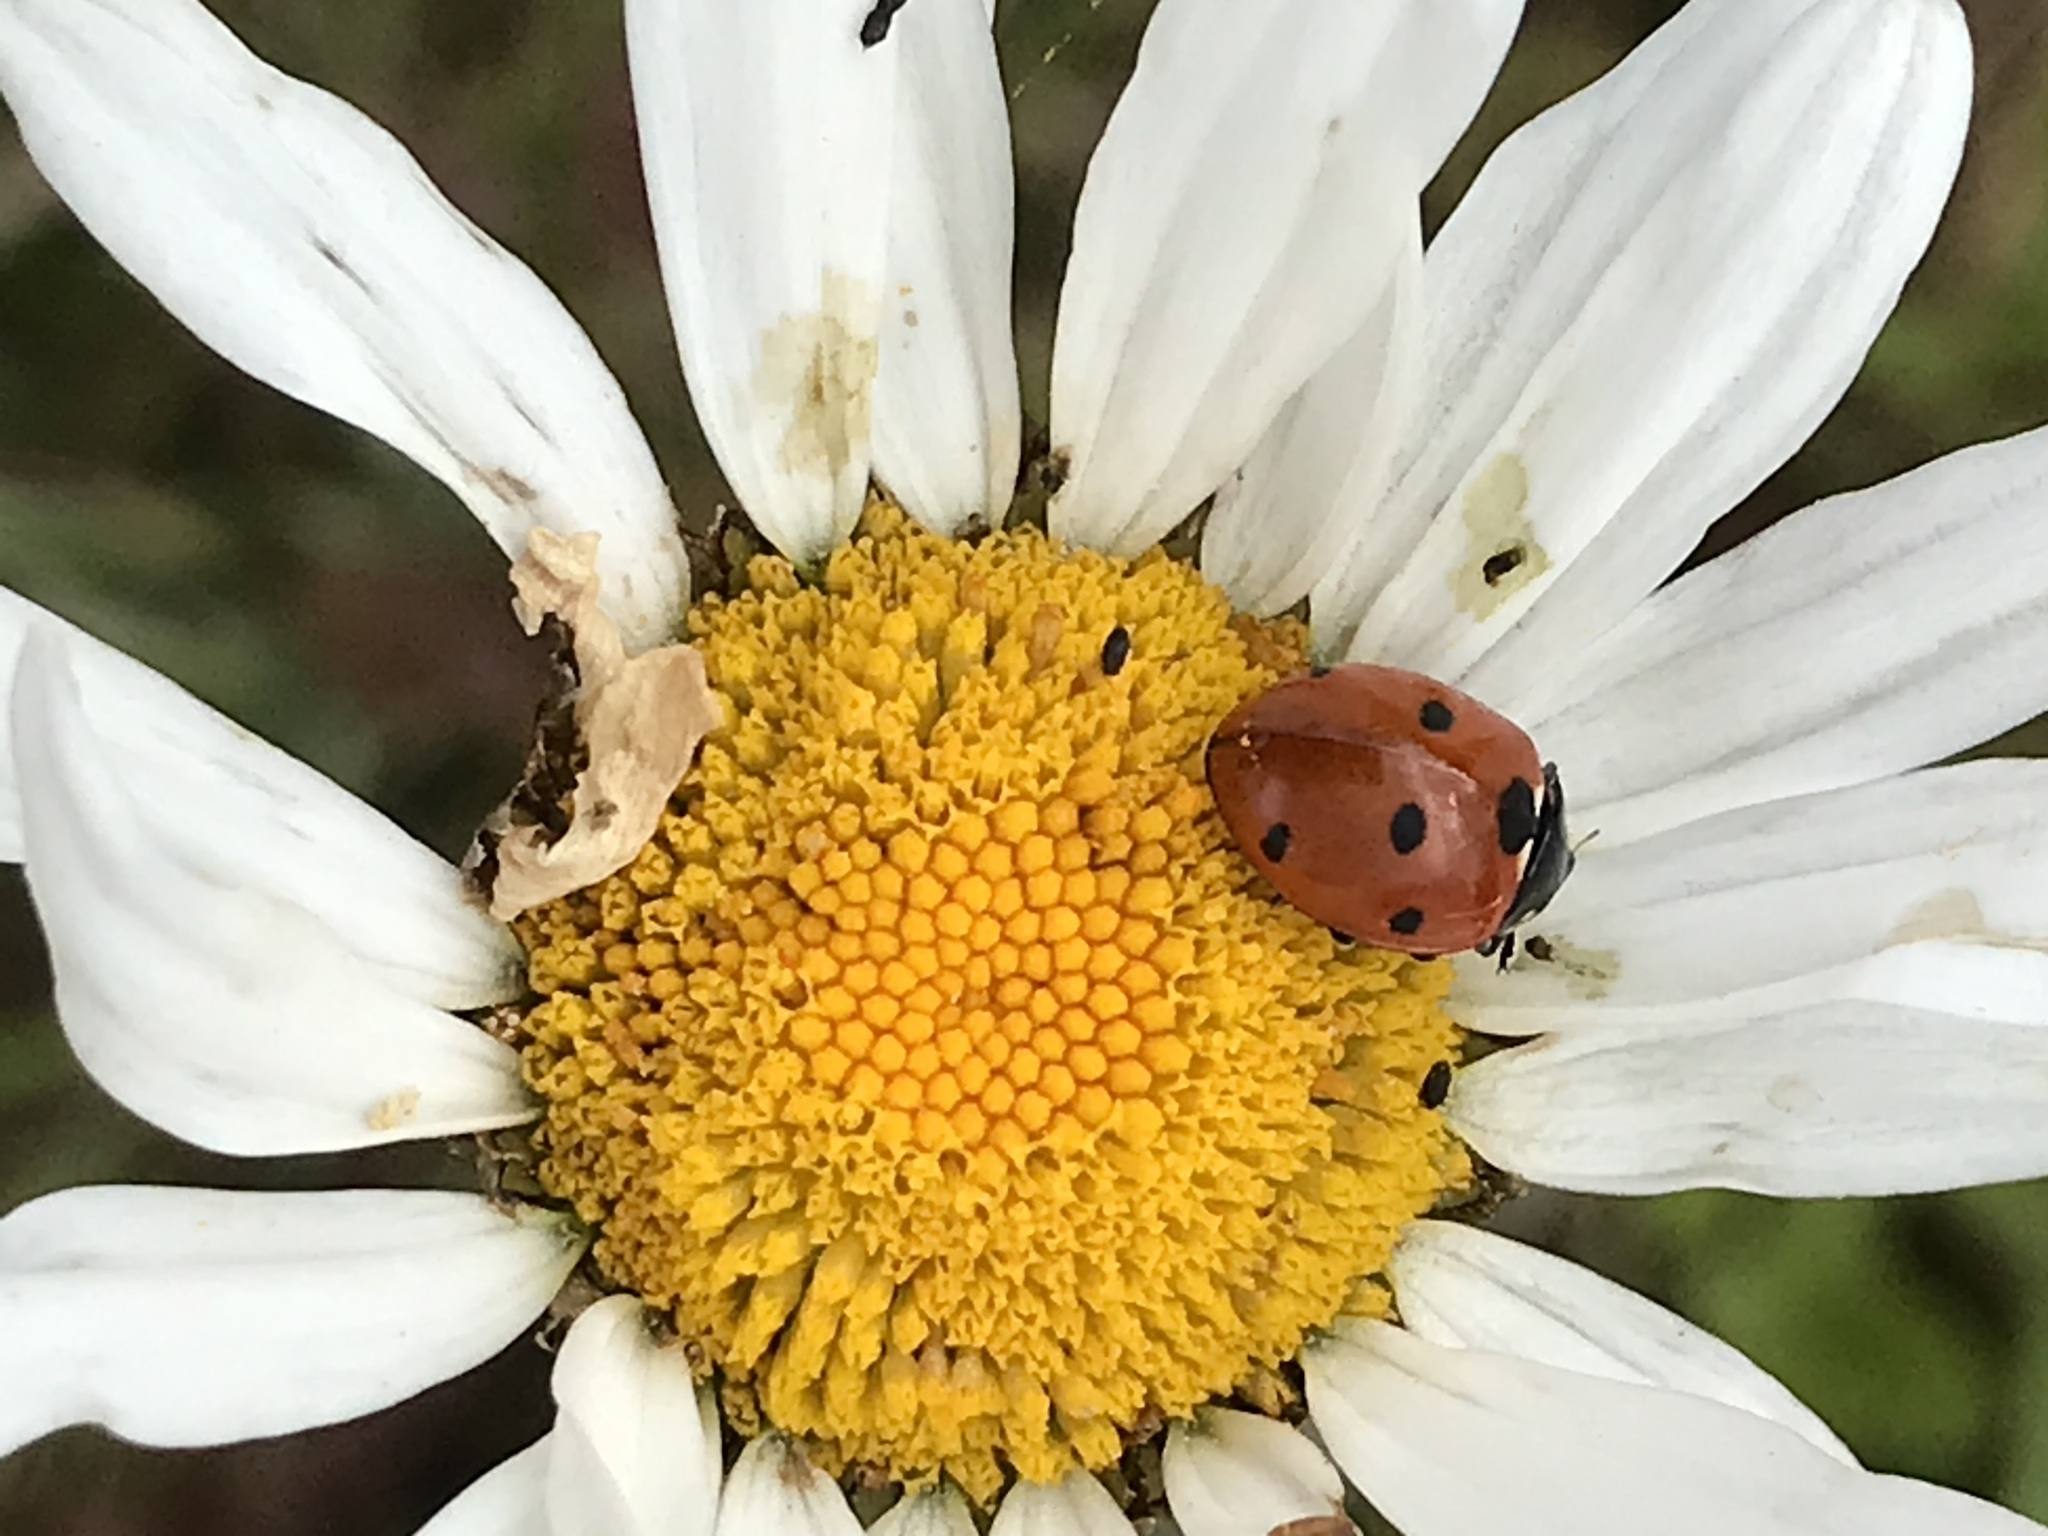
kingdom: Animalia
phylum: Arthropoda
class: Insecta
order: Coleoptera
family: Coccinellidae
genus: Coccinella
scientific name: Coccinella septempunctata
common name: Sevenspotted lady beetle
